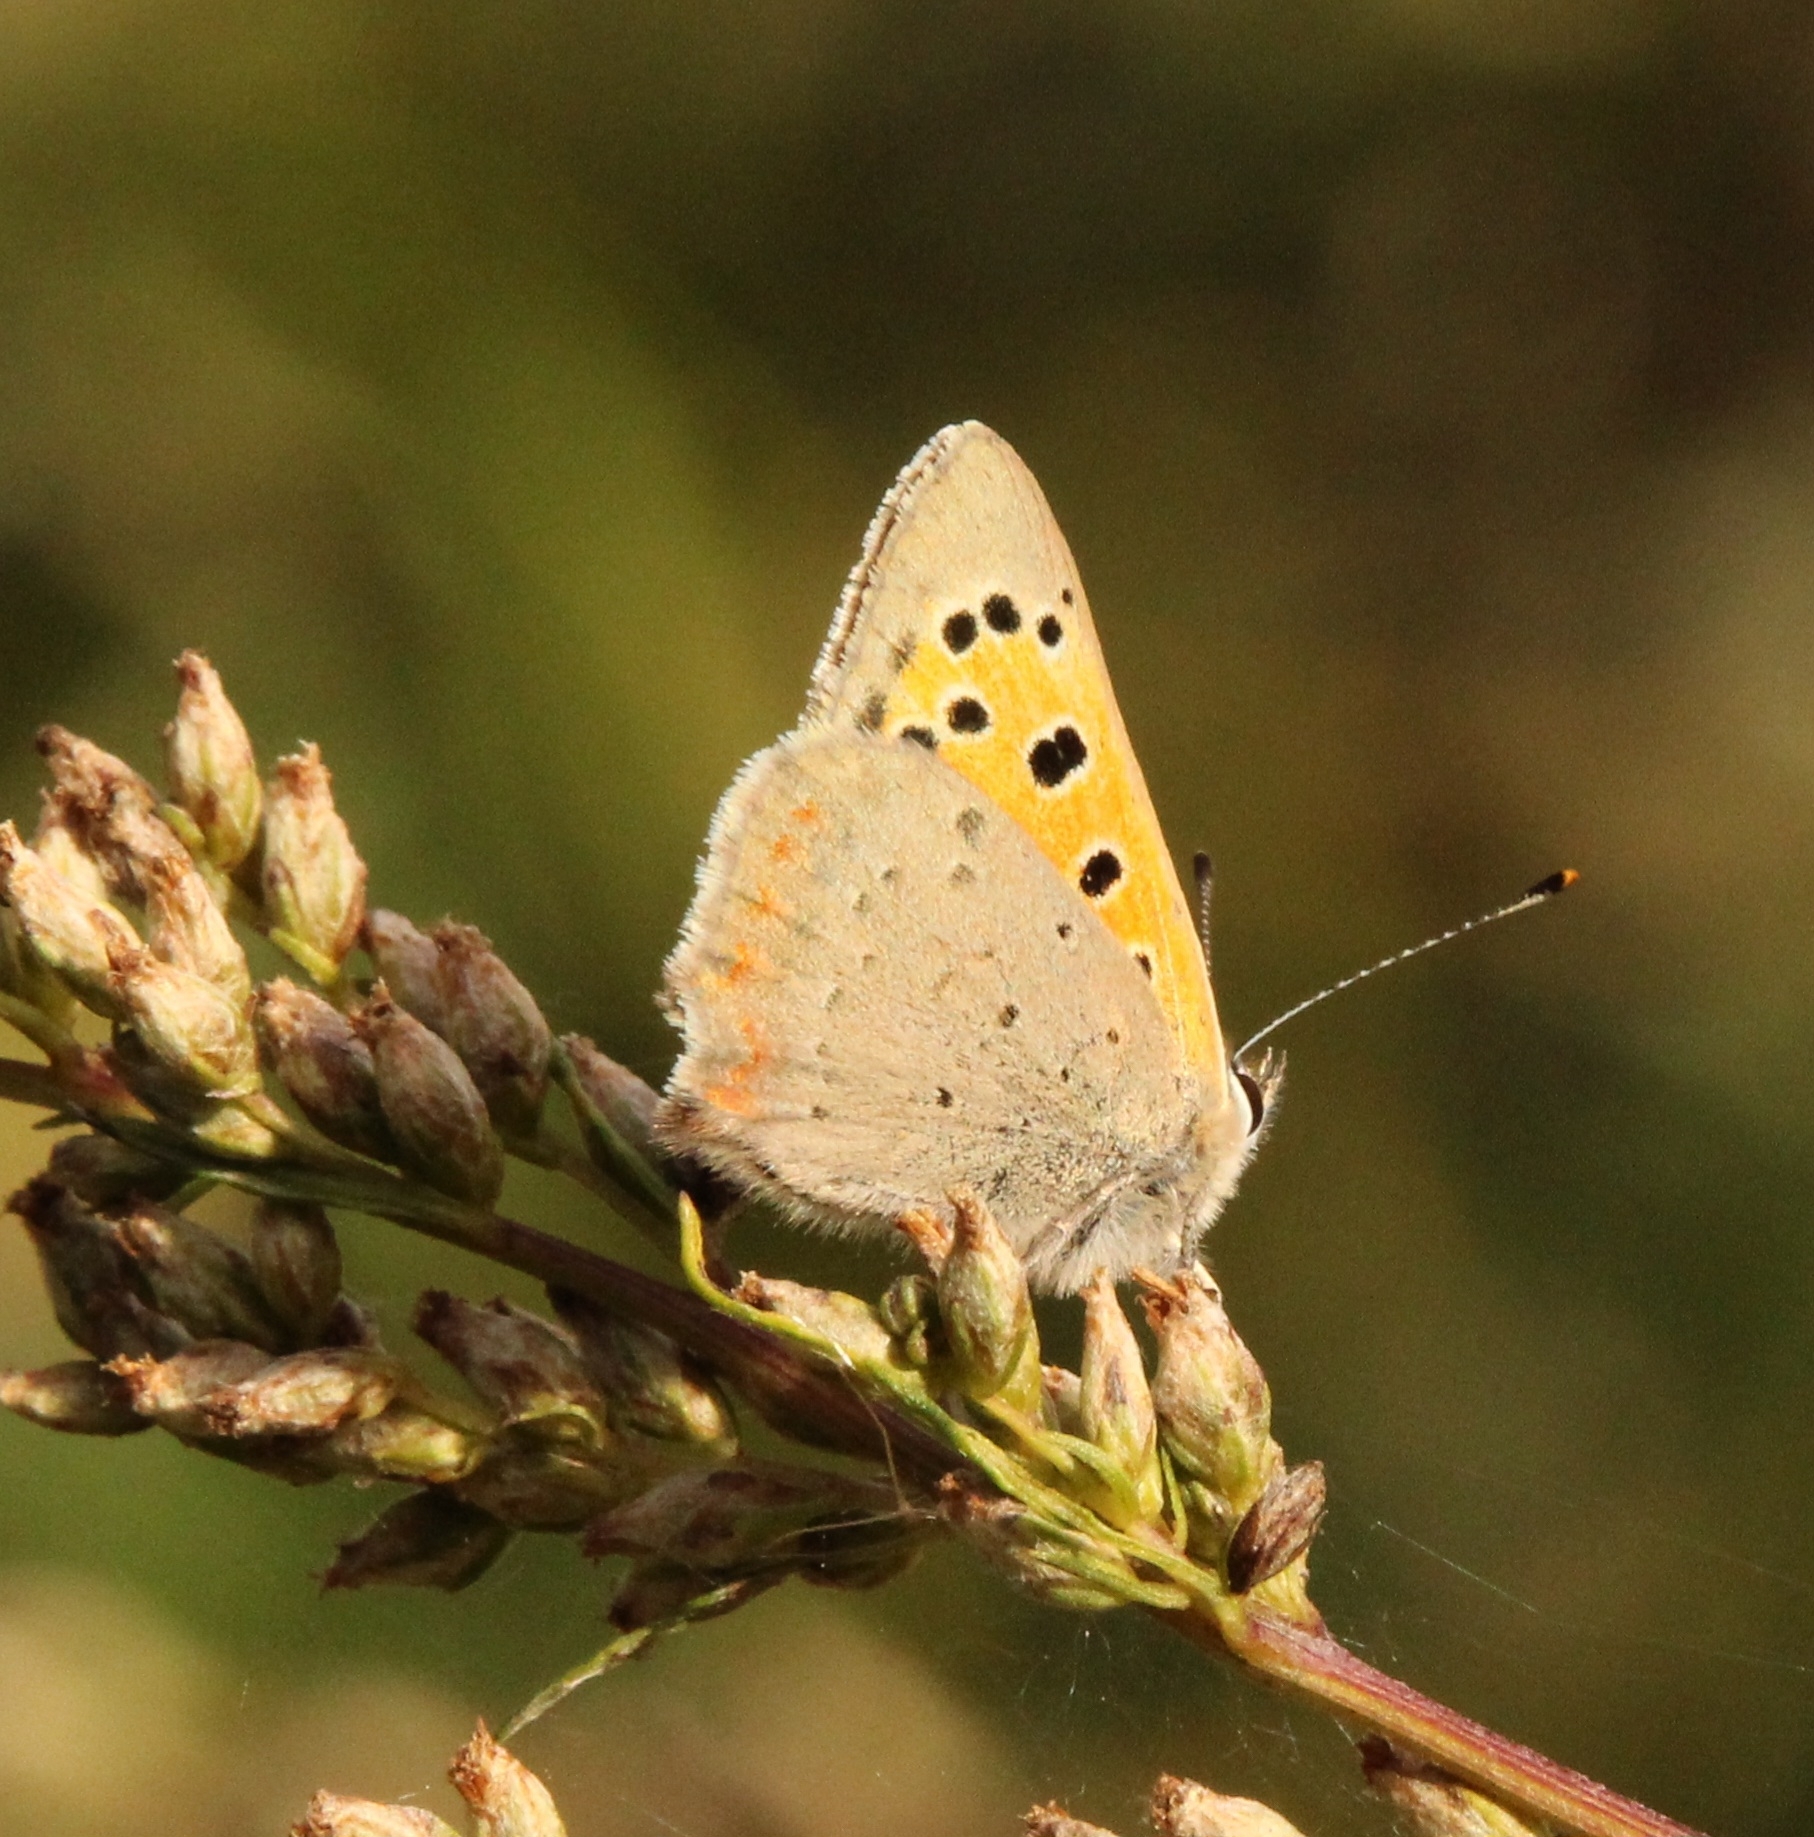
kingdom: Animalia
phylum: Arthropoda
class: Insecta
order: Lepidoptera
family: Lycaenidae
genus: Lycaena
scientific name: Lycaena phlaeas
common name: Small copper
